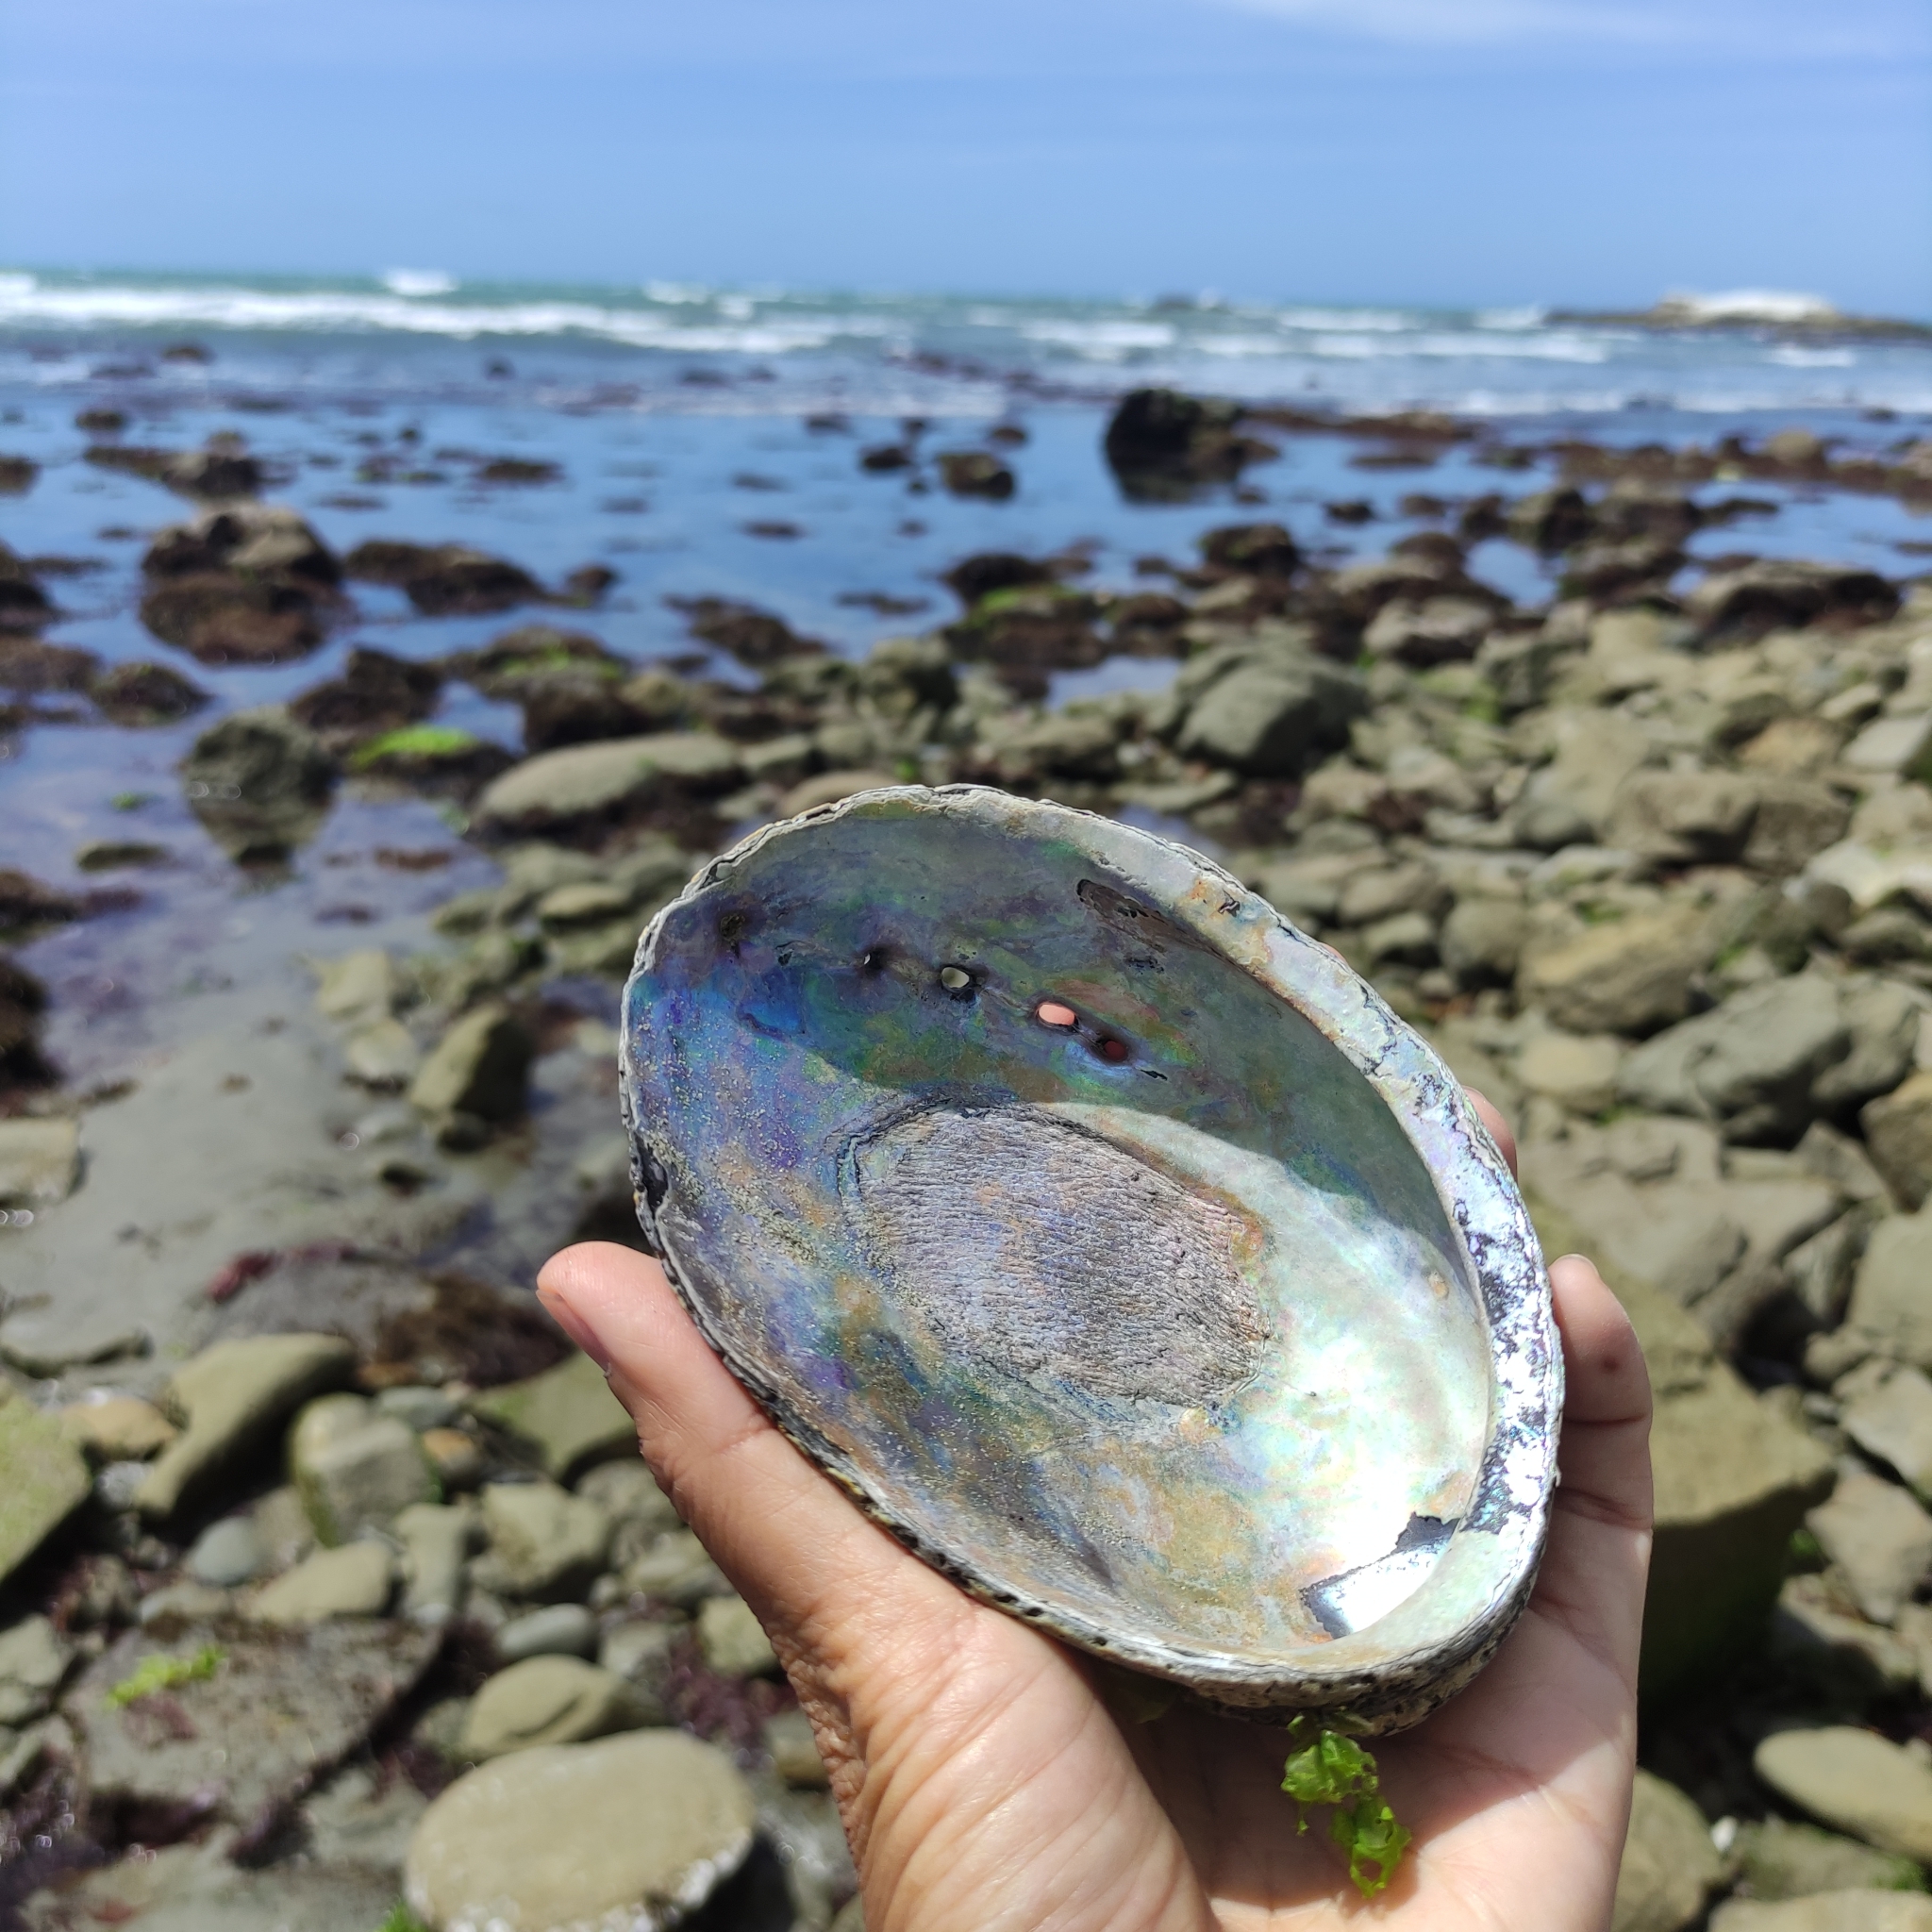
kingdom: Animalia
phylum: Mollusca
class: Gastropoda
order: Lepetellida
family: Haliotidae
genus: Haliotis
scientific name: Haliotis iris
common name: Abalone
